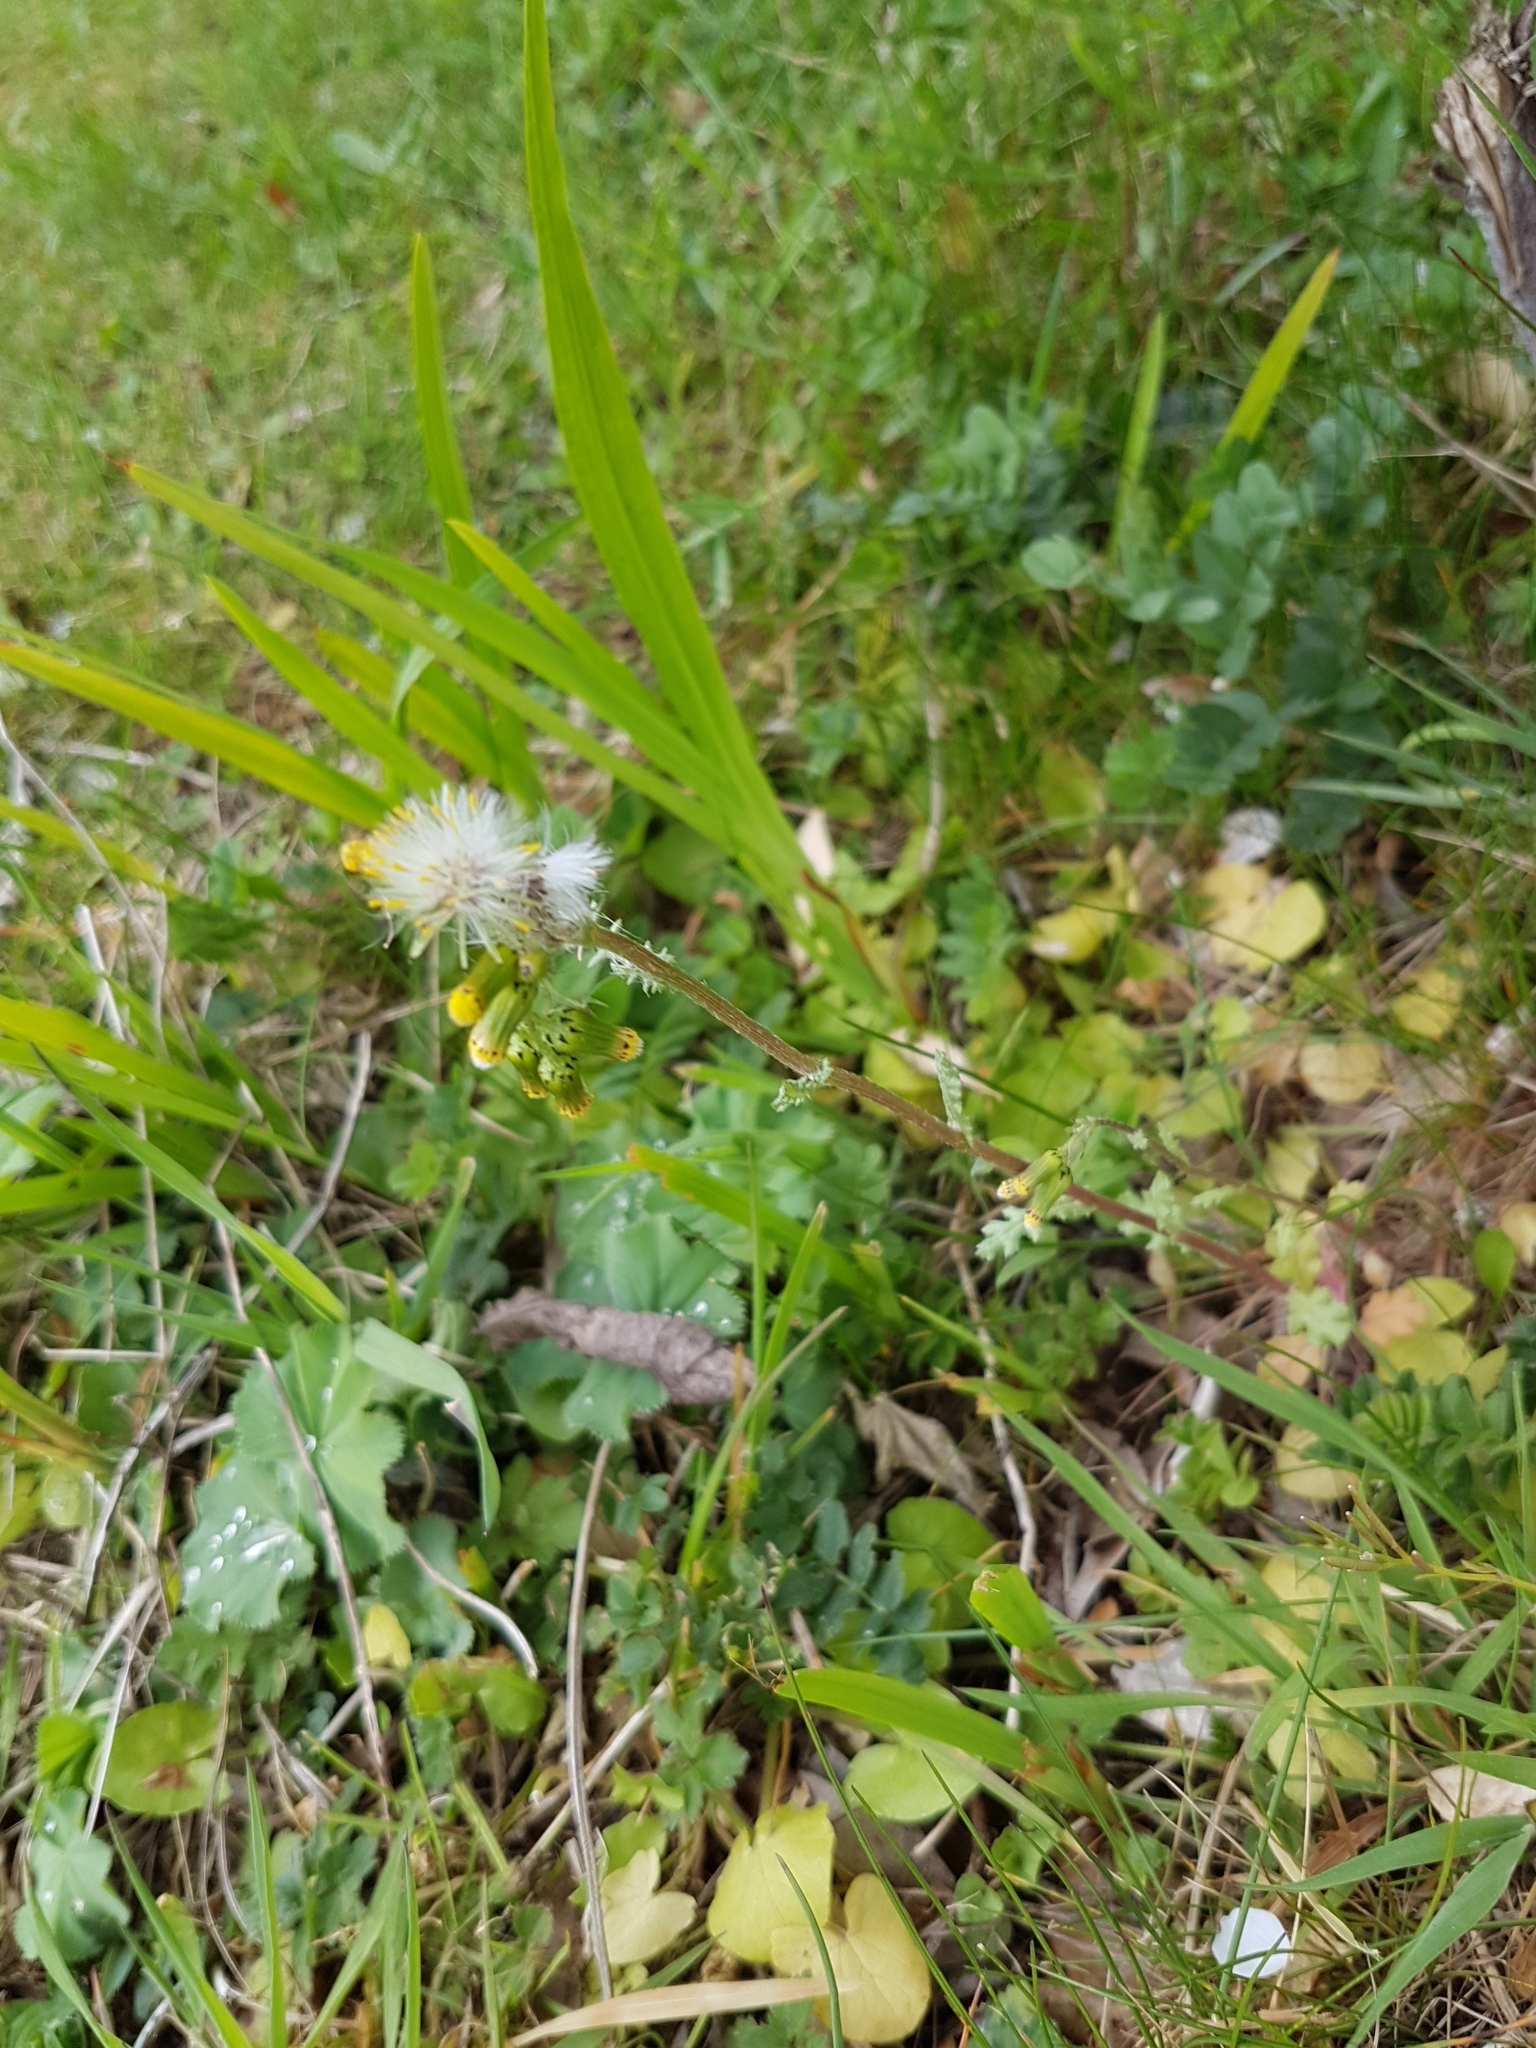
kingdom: Plantae
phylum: Tracheophyta
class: Magnoliopsida
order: Asterales
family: Asteraceae
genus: Senecio
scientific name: Senecio vulgaris
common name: Old-man-in-the-spring
